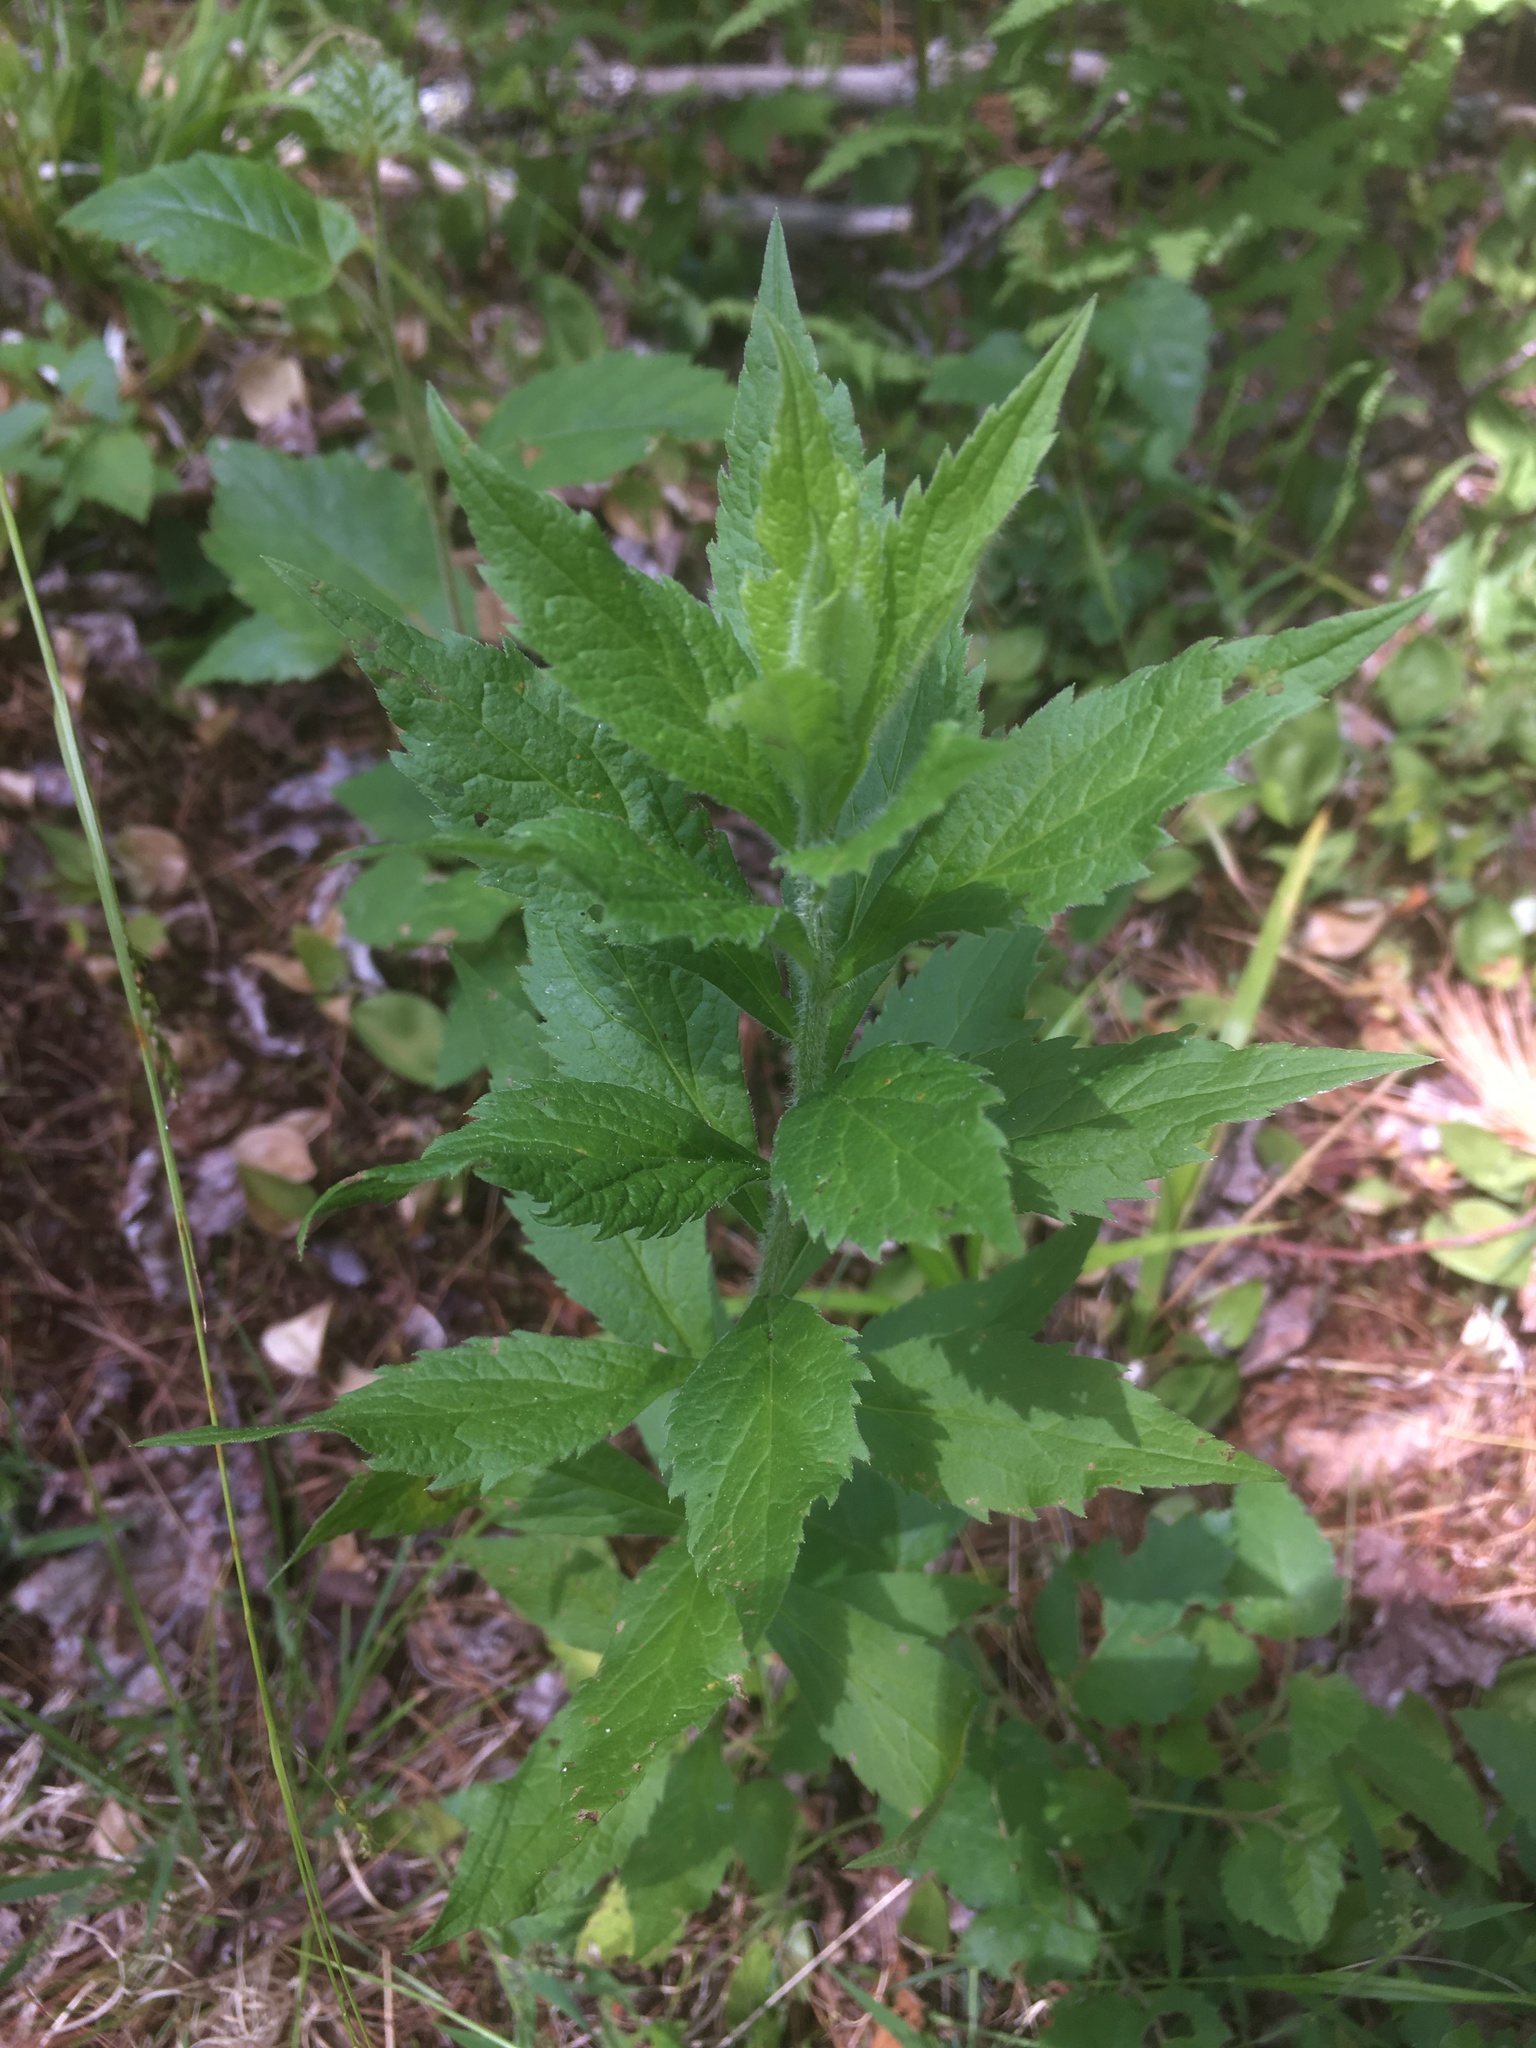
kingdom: Plantae
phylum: Tracheophyta
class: Magnoliopsida
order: Asterales
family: Asteraceae
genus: Solidago
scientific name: Solidago rugosa
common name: Rough-stemmed goldenrod
